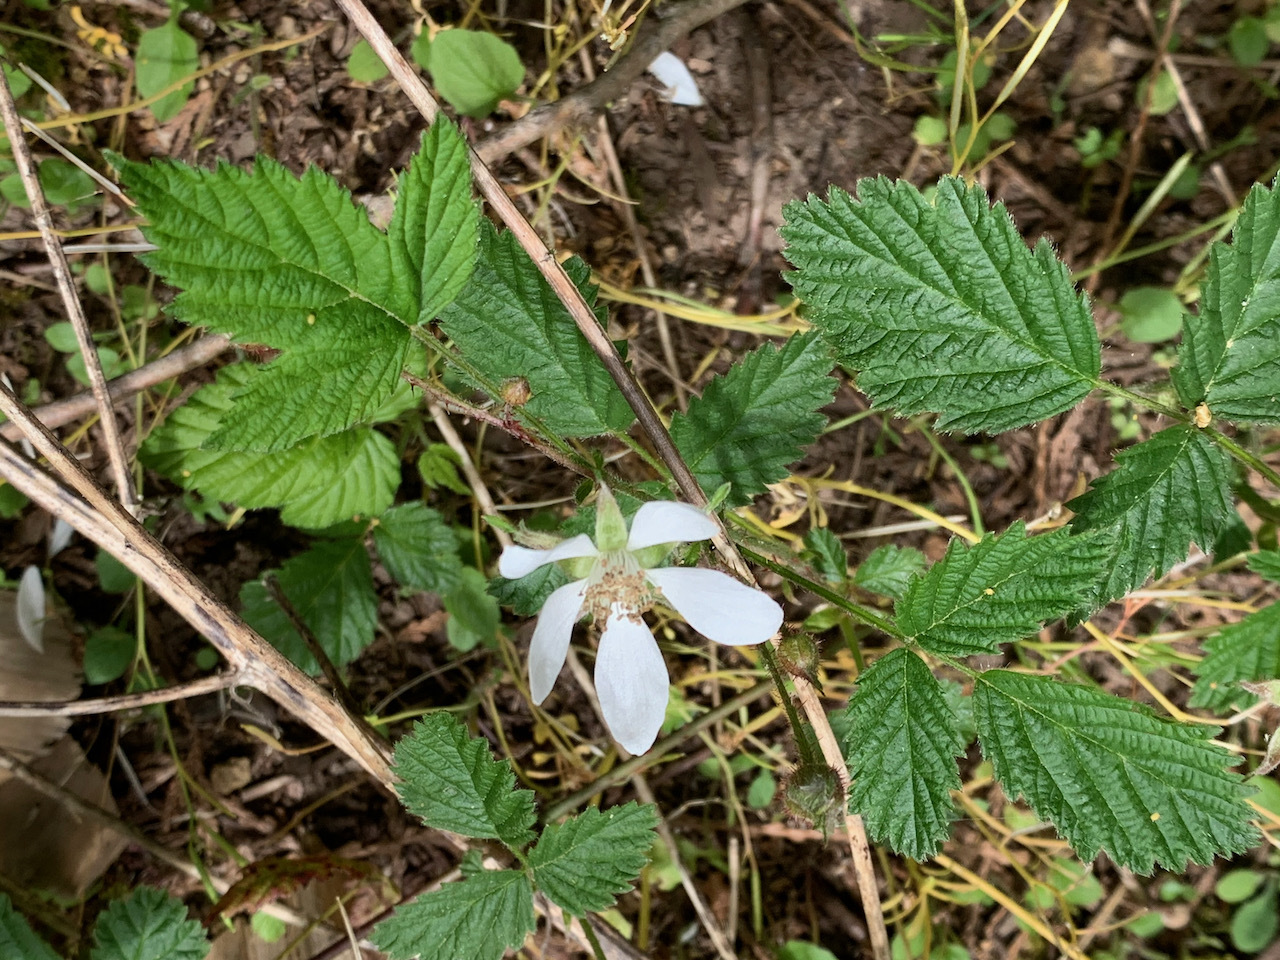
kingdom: Plantae
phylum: Tracheophyta
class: Magnoliopsida
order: Rosales
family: Rosaceae
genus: Rubus
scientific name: Rubus ursinus
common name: Pacific blackberry
